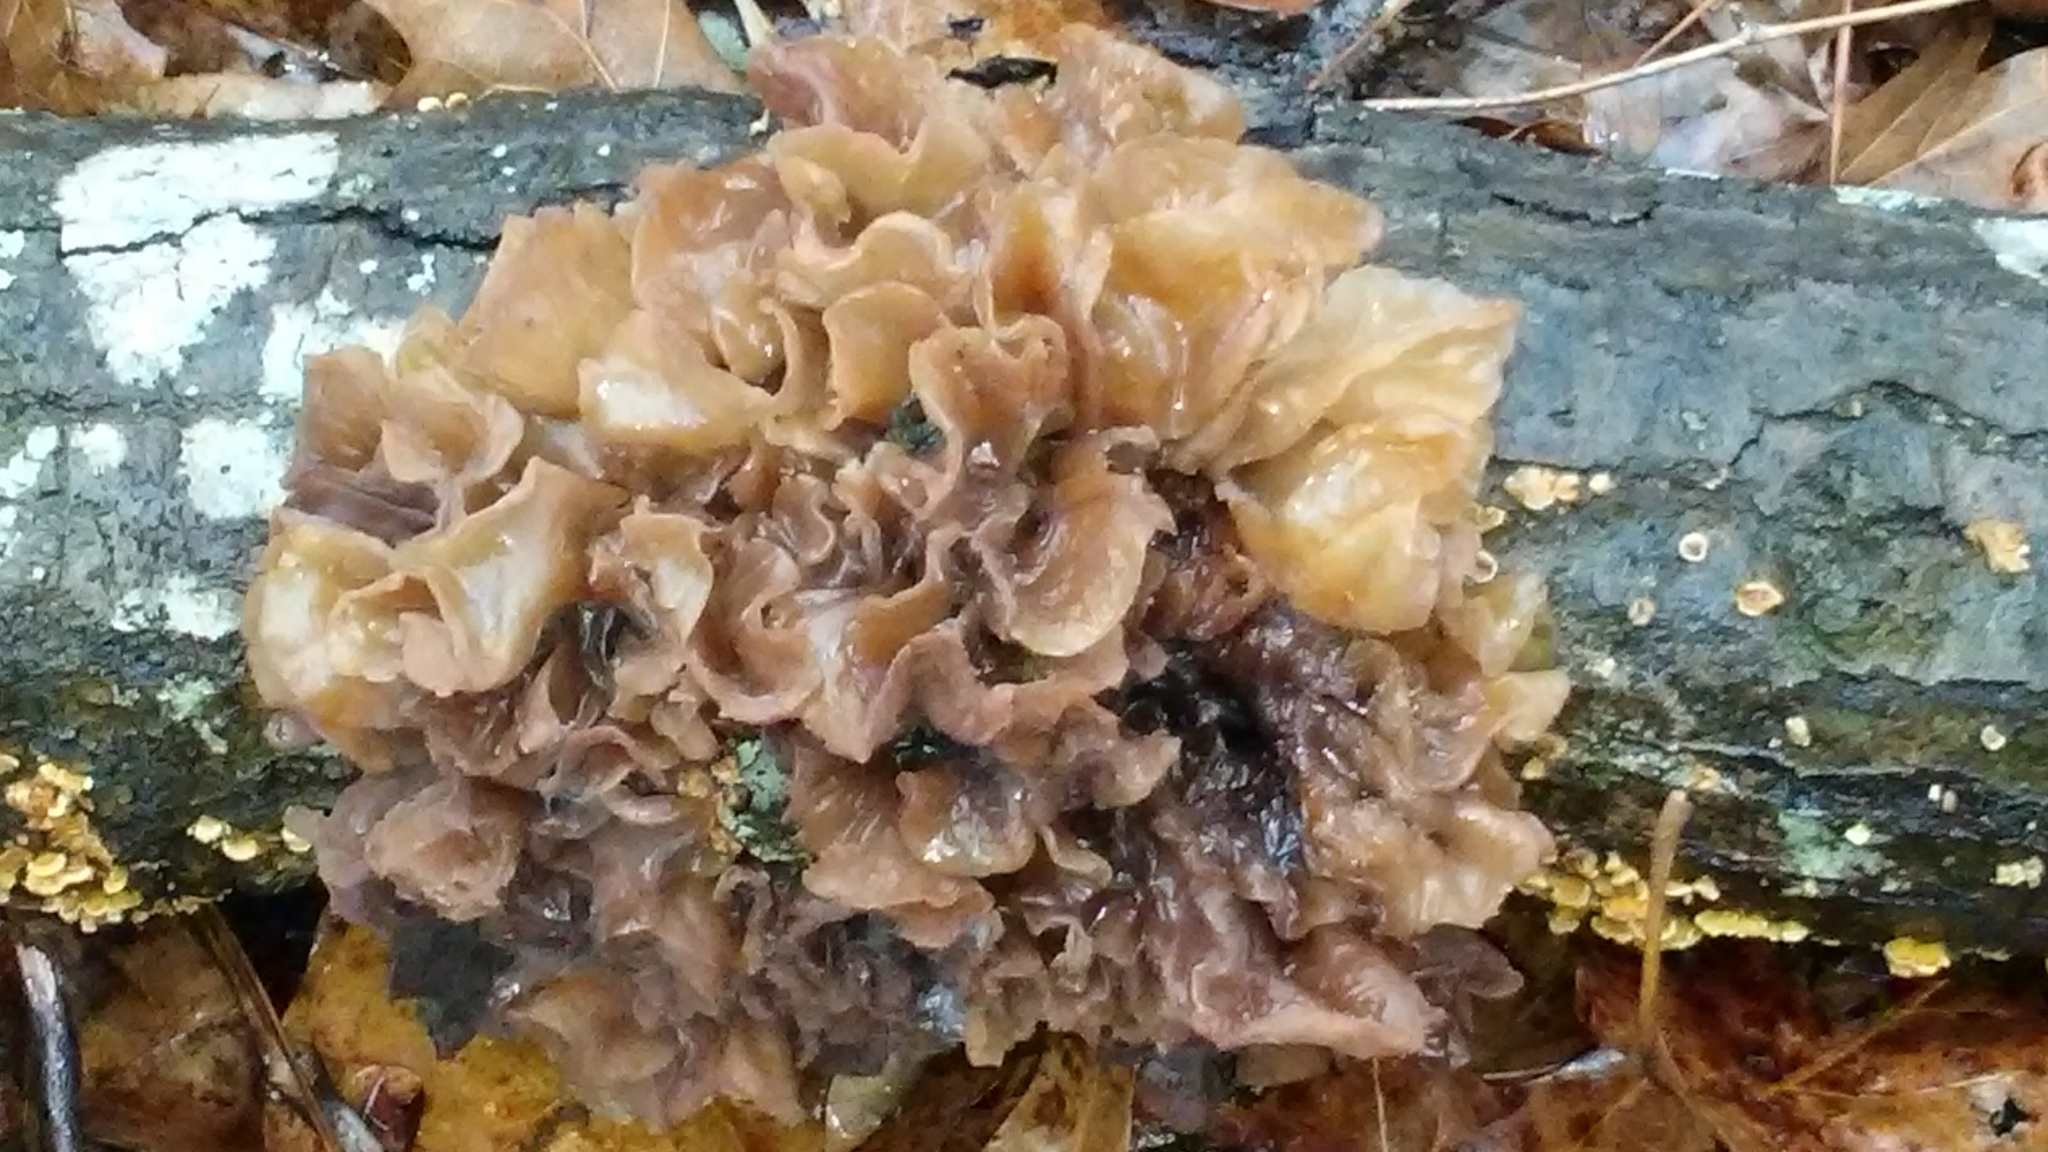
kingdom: Fungi
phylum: Basidiomycota
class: Tremellomycetes
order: Tremellales
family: Tremellaceae
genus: Phaeotremella
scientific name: Phaeotremella foliacea
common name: Leafy brain
